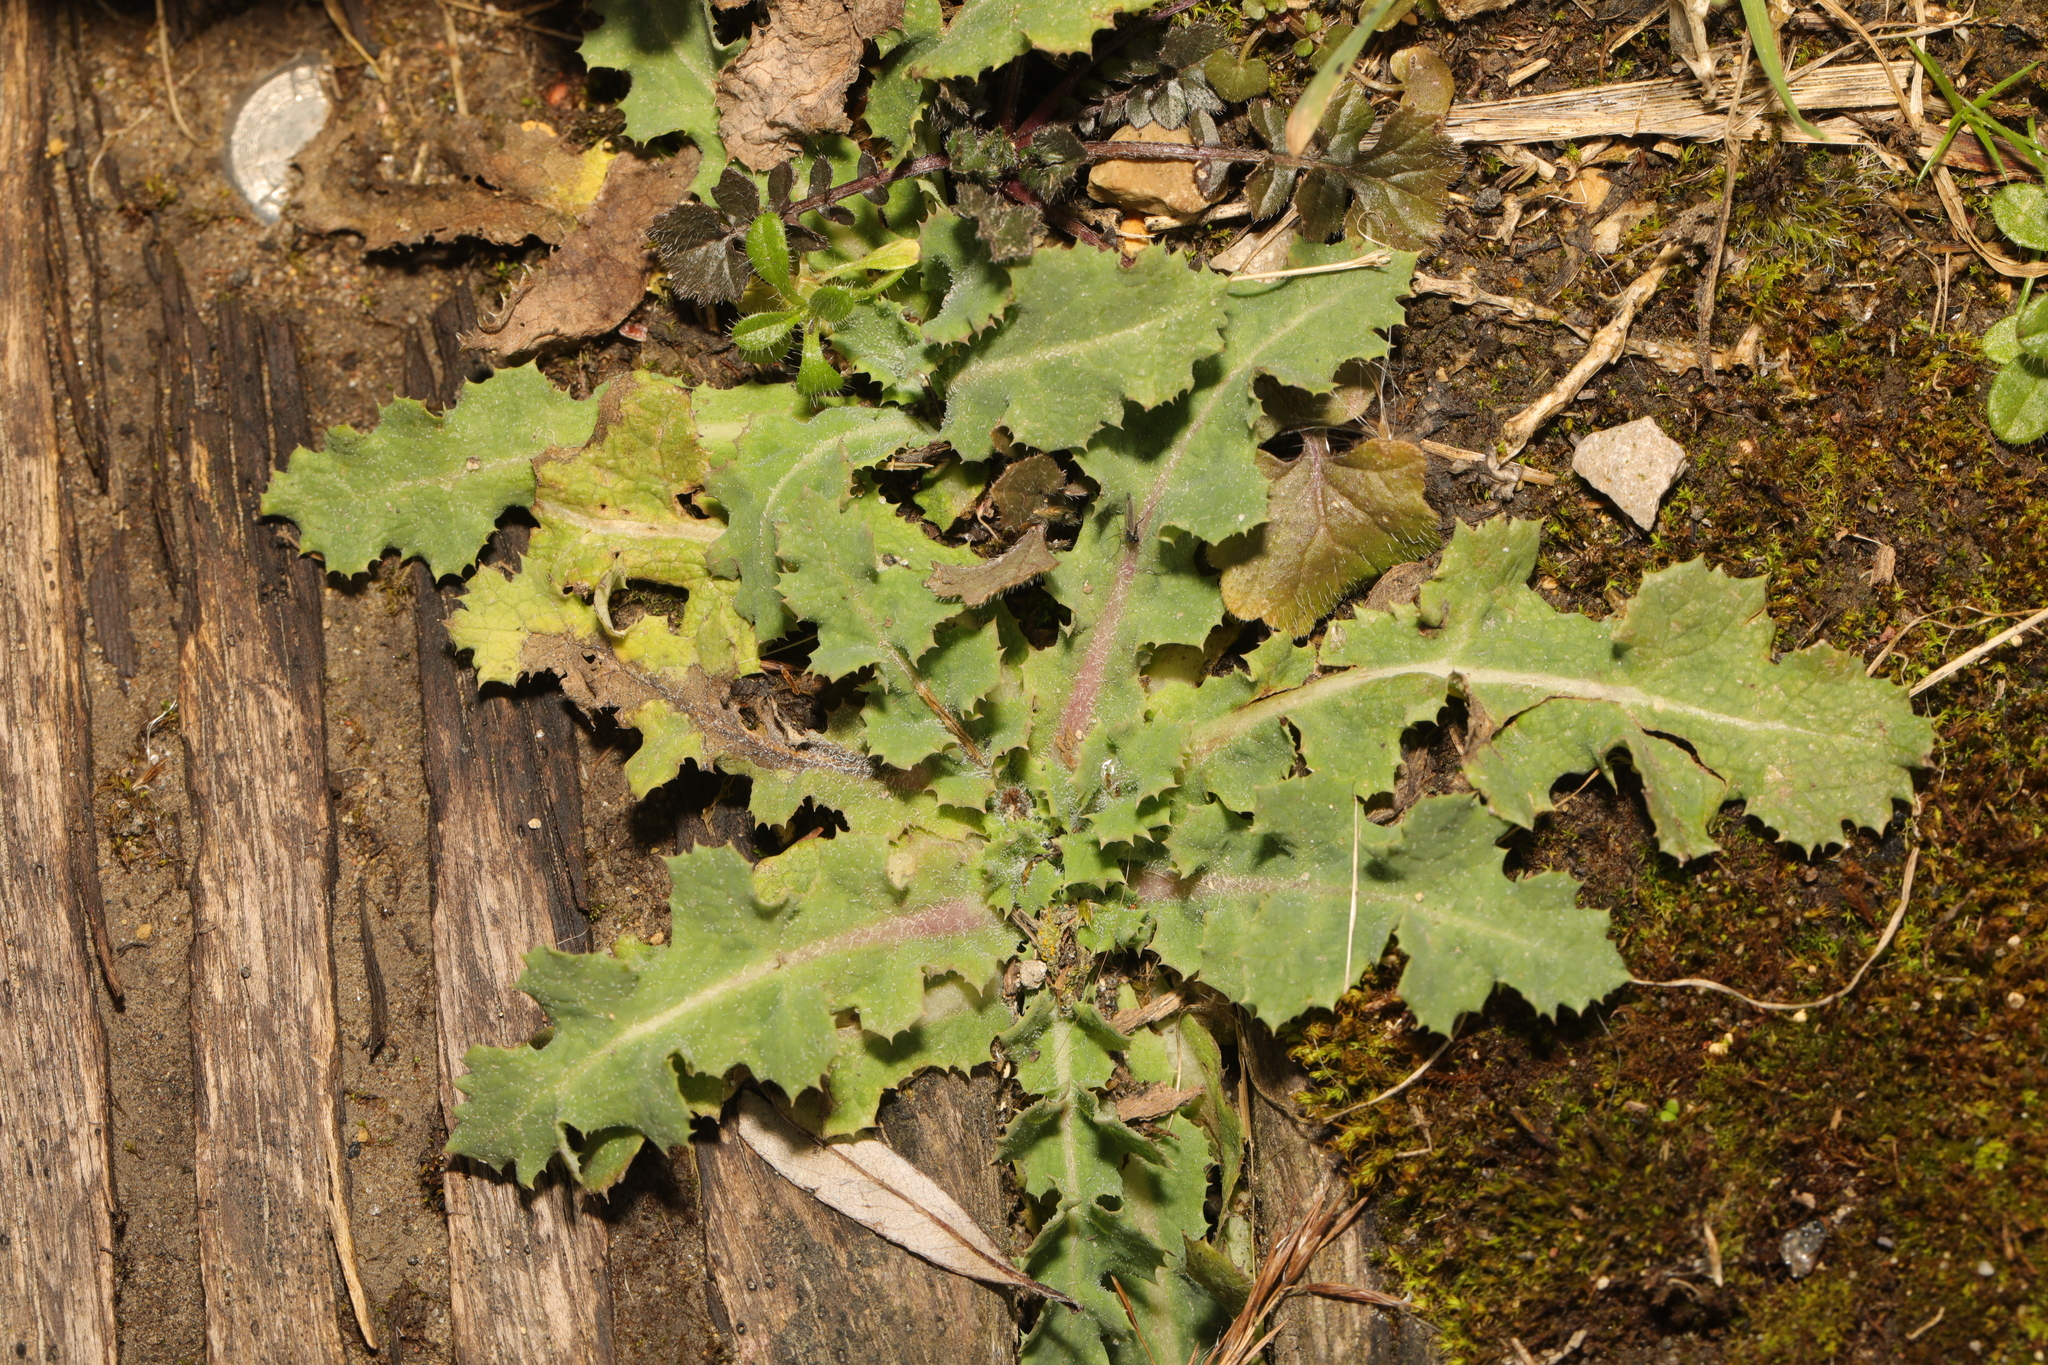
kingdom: Plantae
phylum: Tracheophyta
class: Magnoliopsida
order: Asterales
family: Asteraceae
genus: Sonchus
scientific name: Sonchus asper
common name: Prickly sow-thistle
